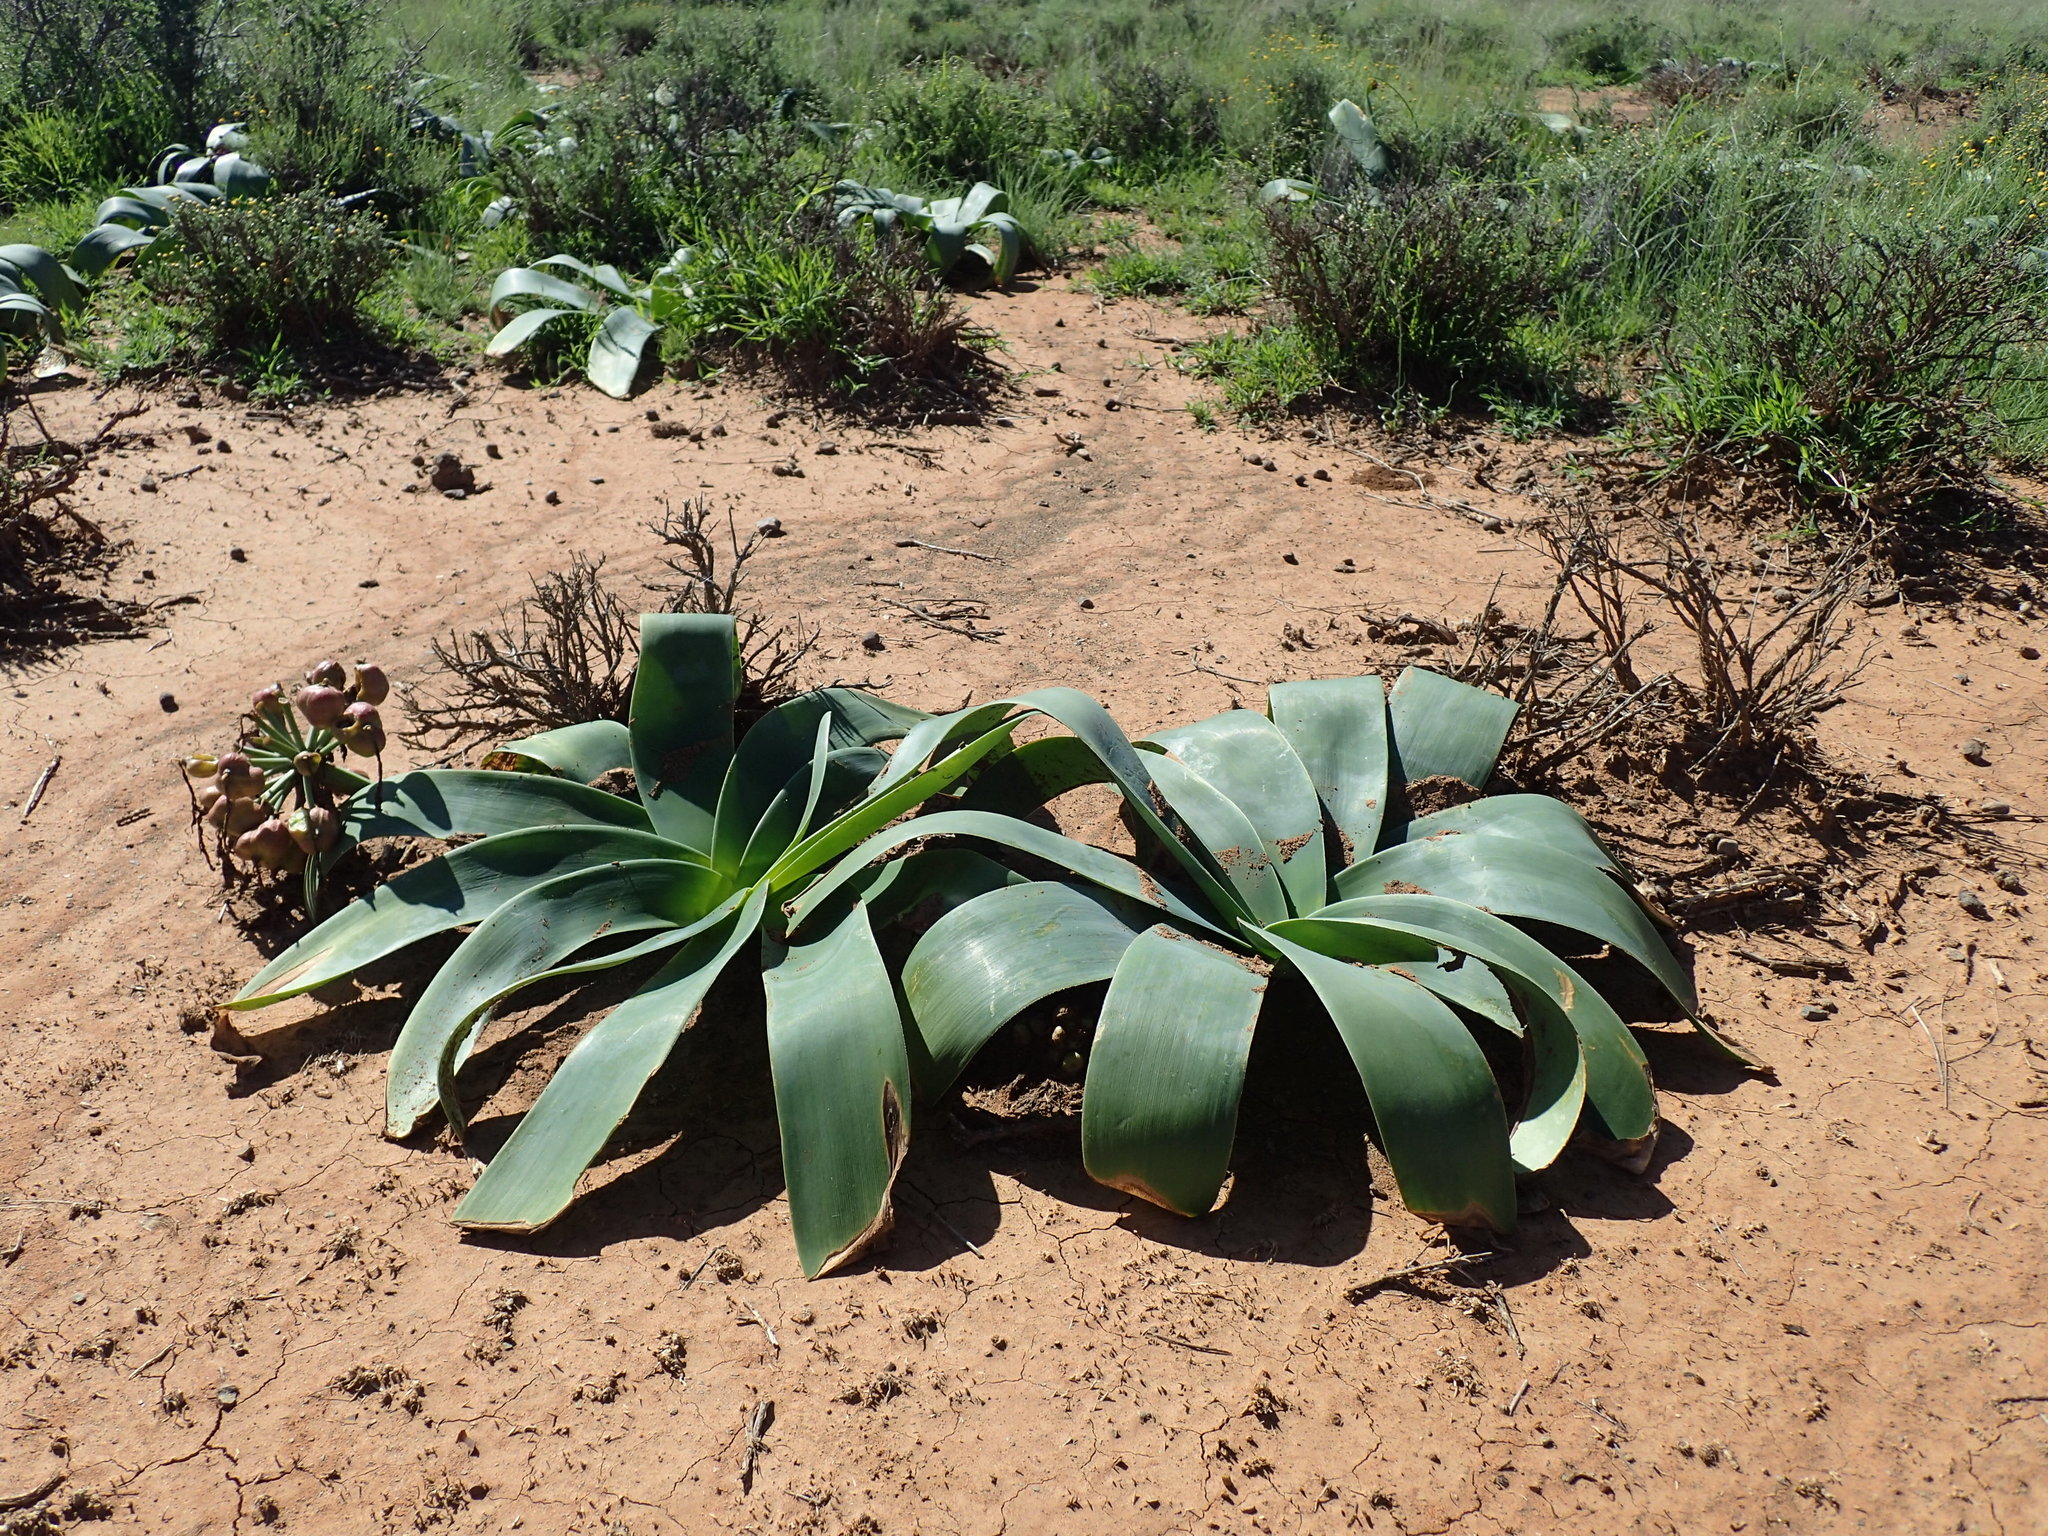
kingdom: Plantae
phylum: Tracheophyta
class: Liliopsida
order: Asparagales
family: Amaryllidaceae
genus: Ammocharis
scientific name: Ammocharis coranica
